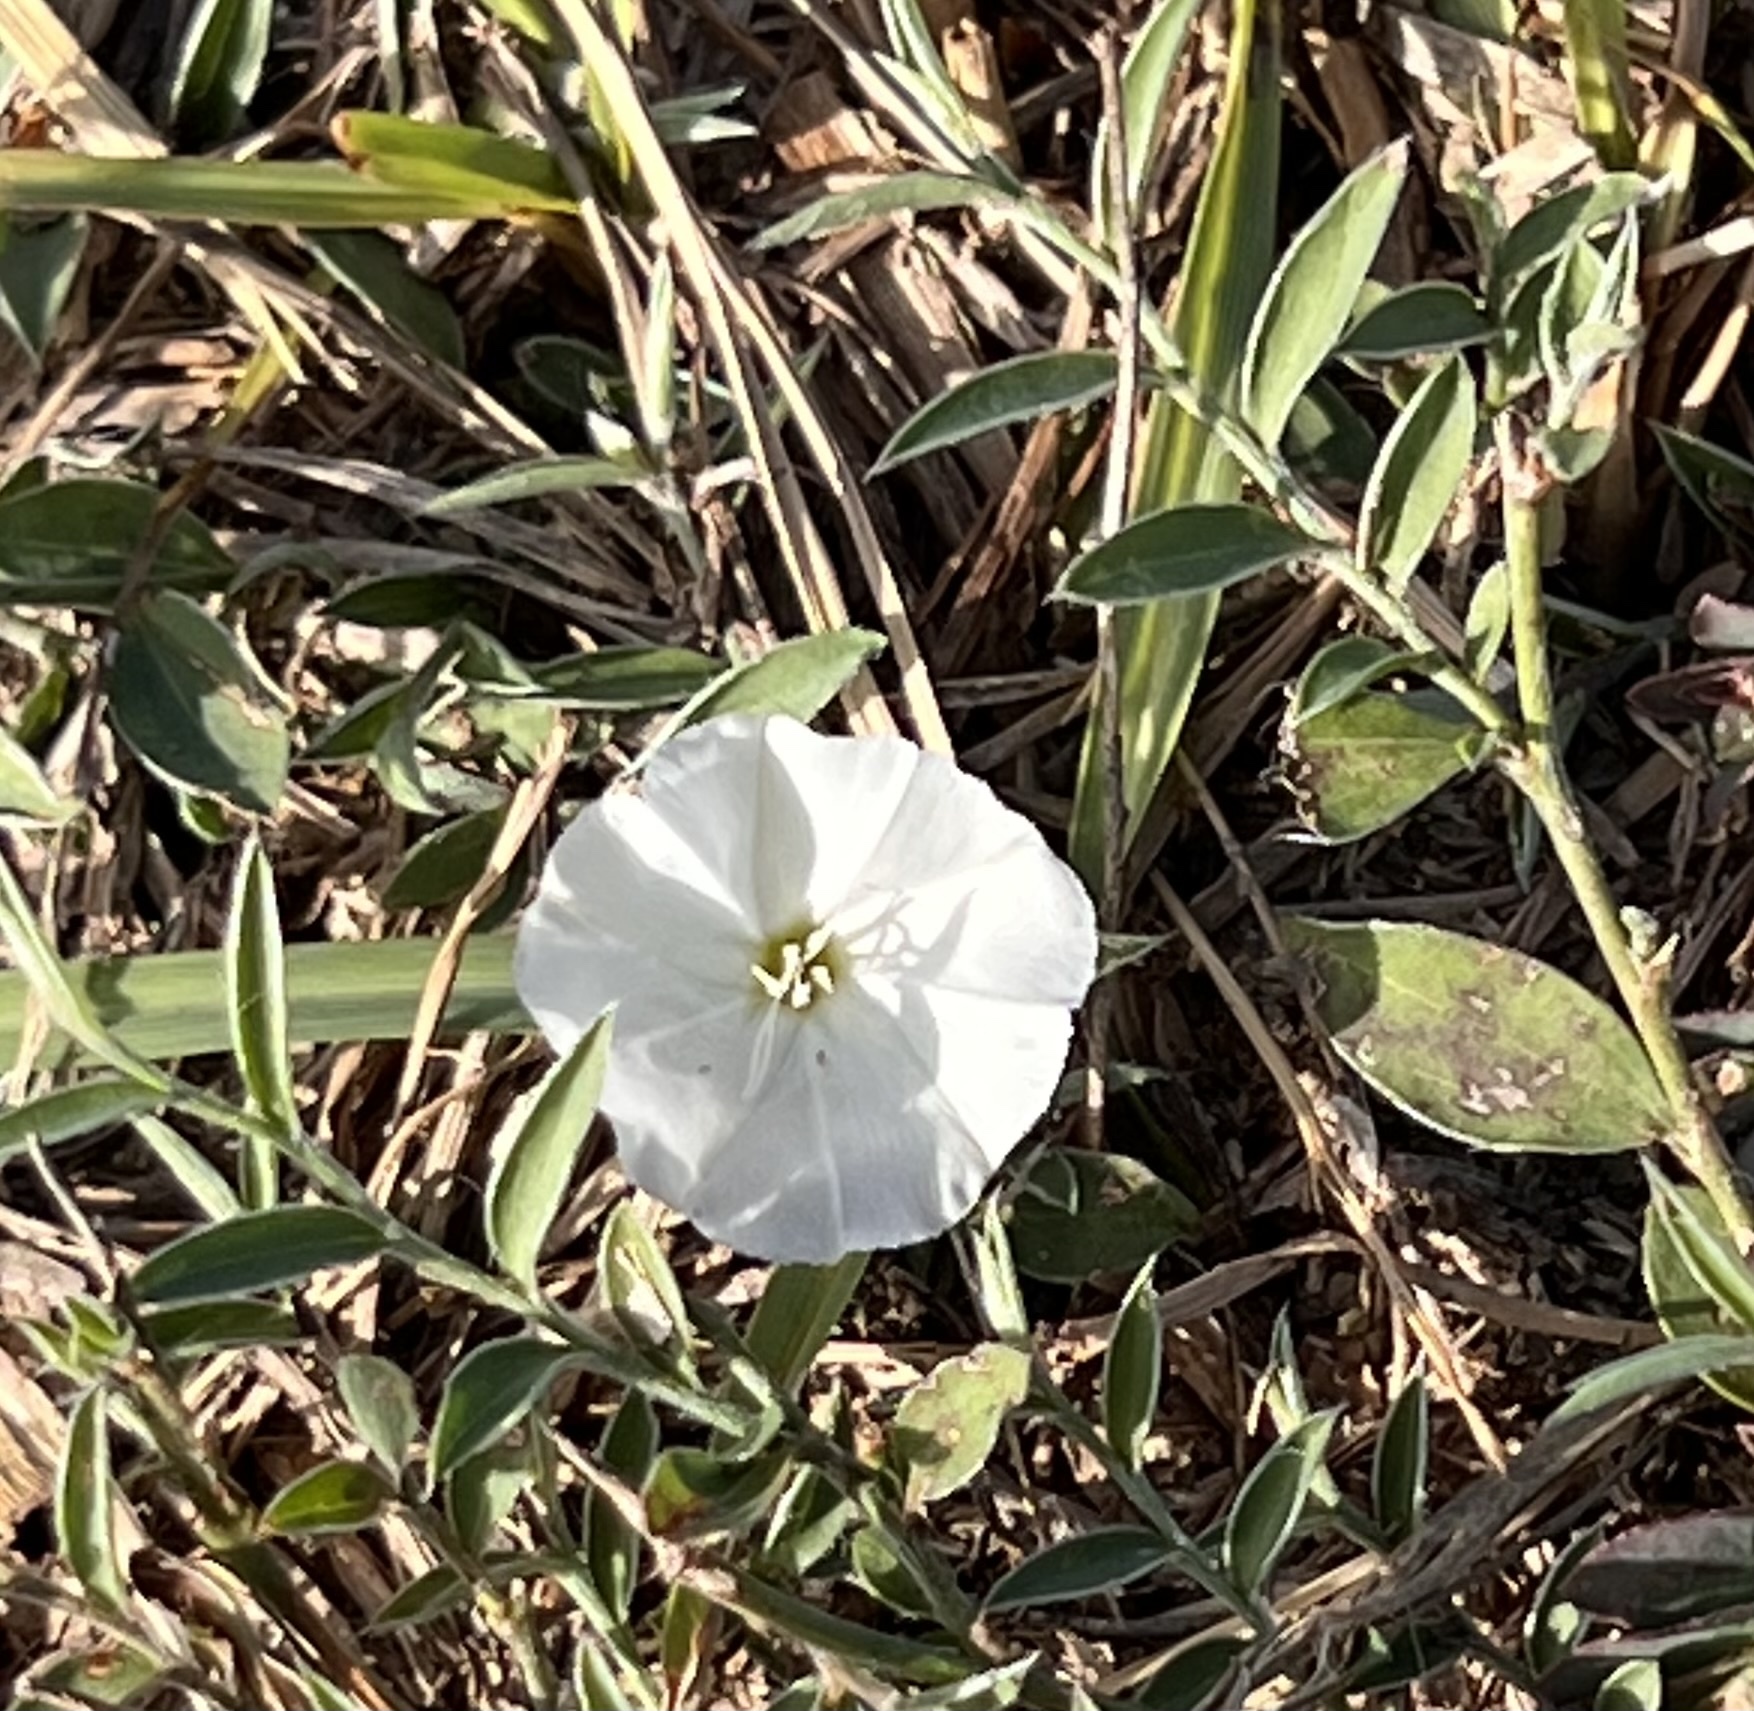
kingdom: Plantae
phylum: Tracheophyta
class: Magnoliopsida
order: Solanales
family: Convolvulaceae
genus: Evolvulus
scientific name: Evolvulus sericeus
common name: Blue dots
